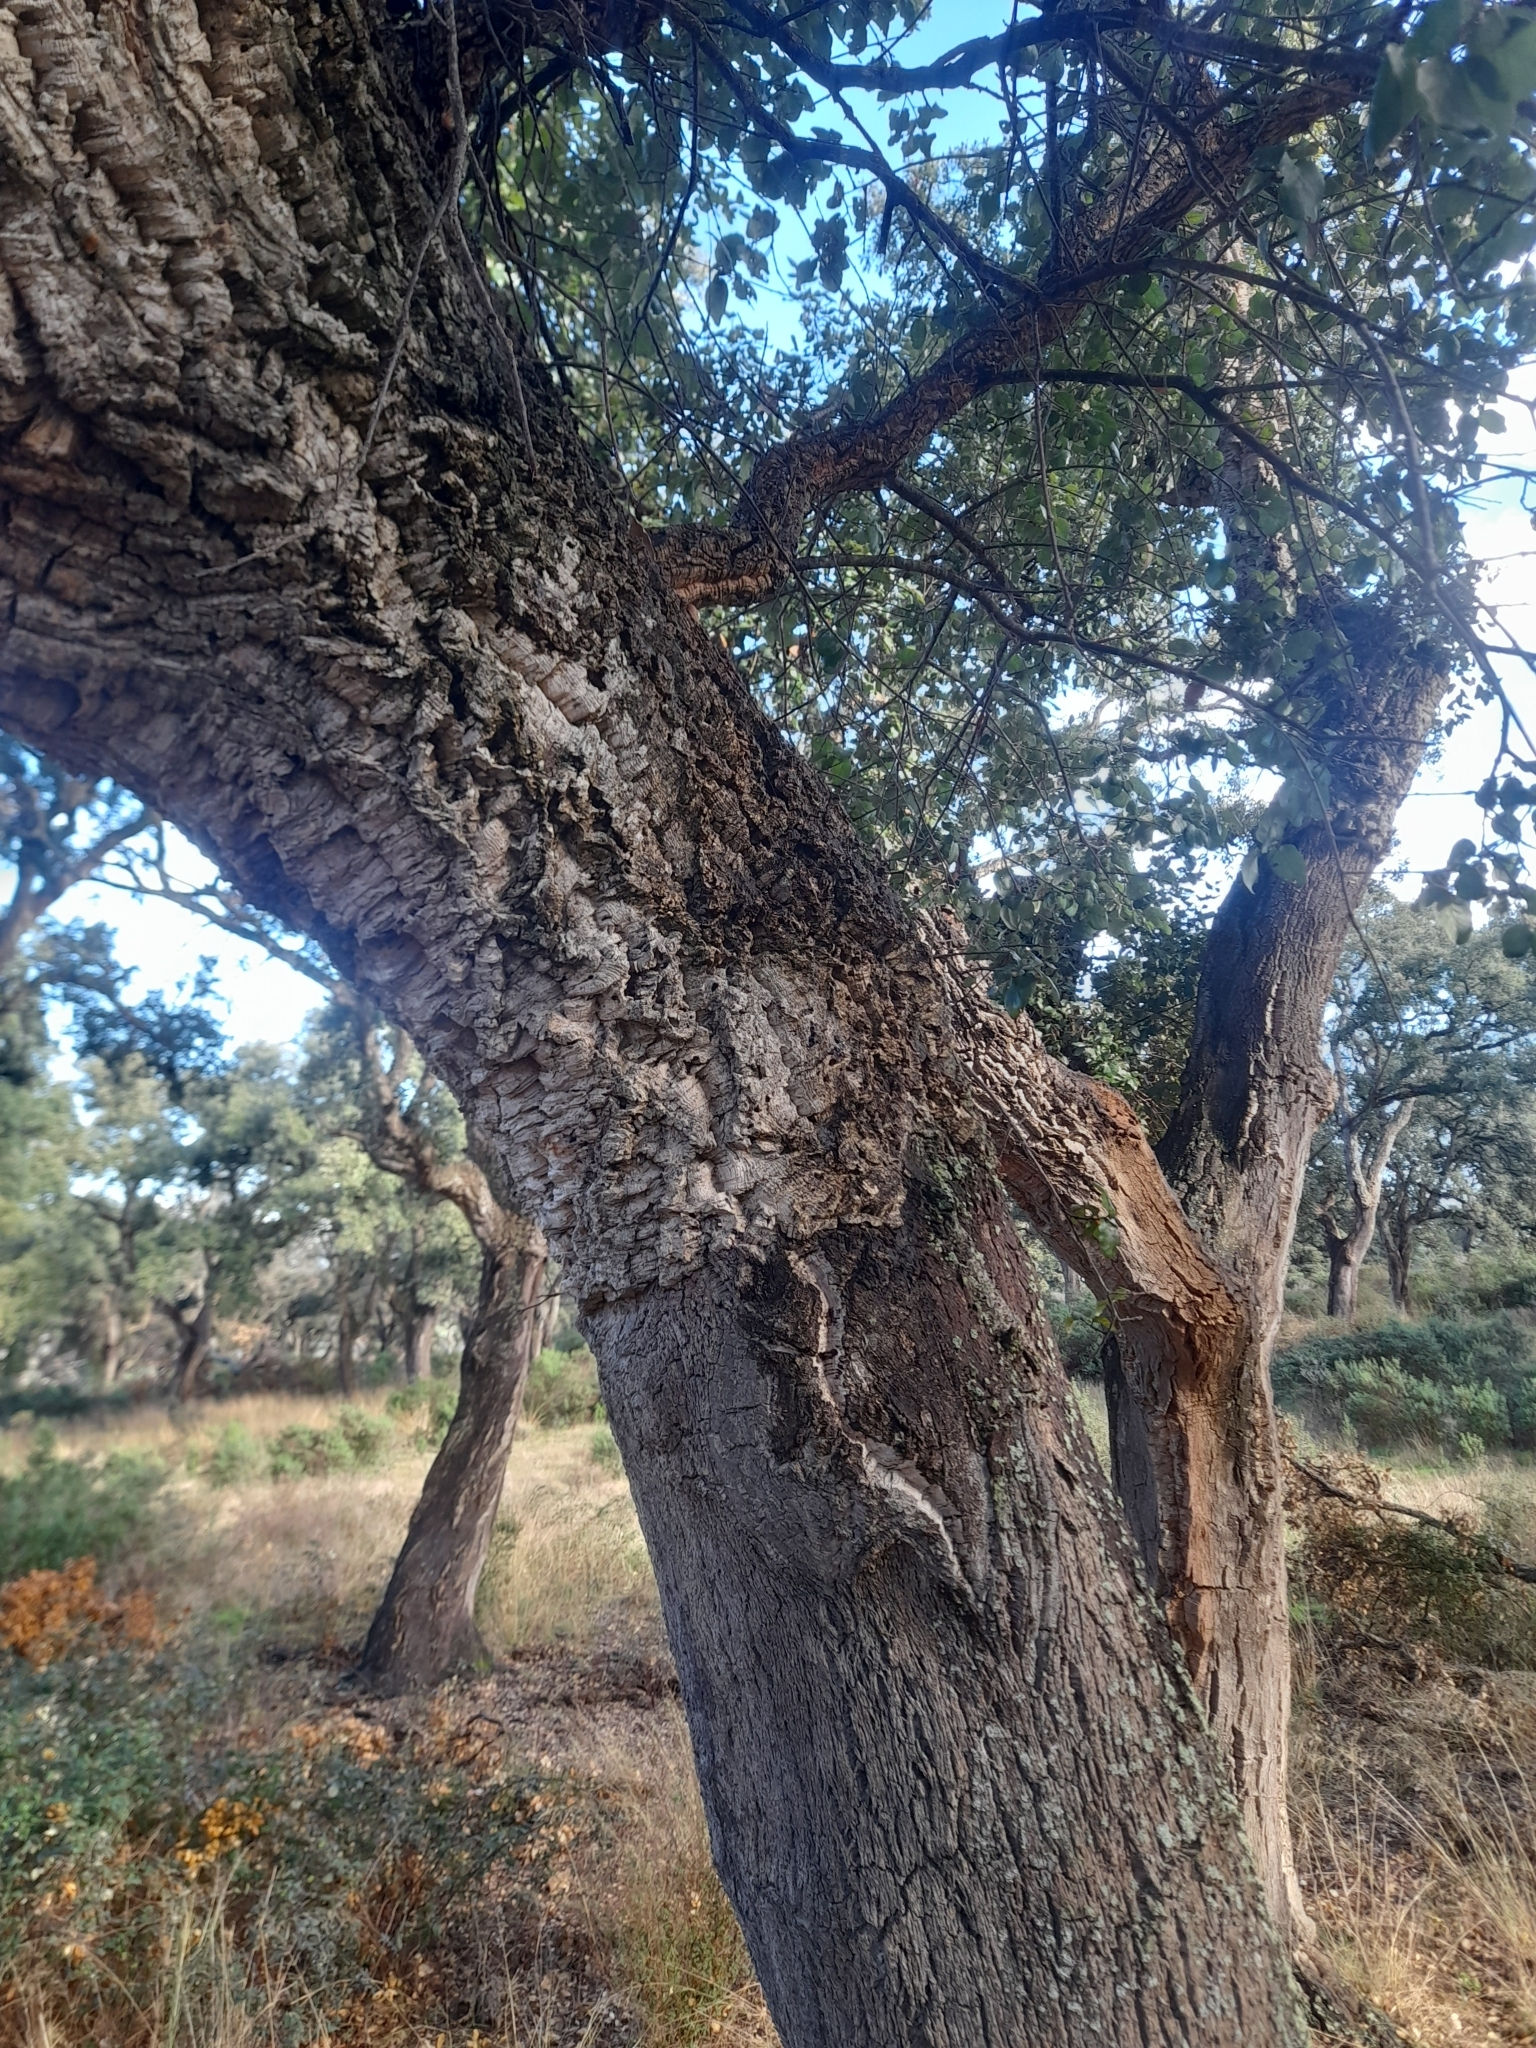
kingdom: Plantae
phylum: Tracheophyta
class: Magnoliopsida
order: Fagales
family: Fagaceae
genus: Quercus
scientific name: Quercus suber
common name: Cork oak
